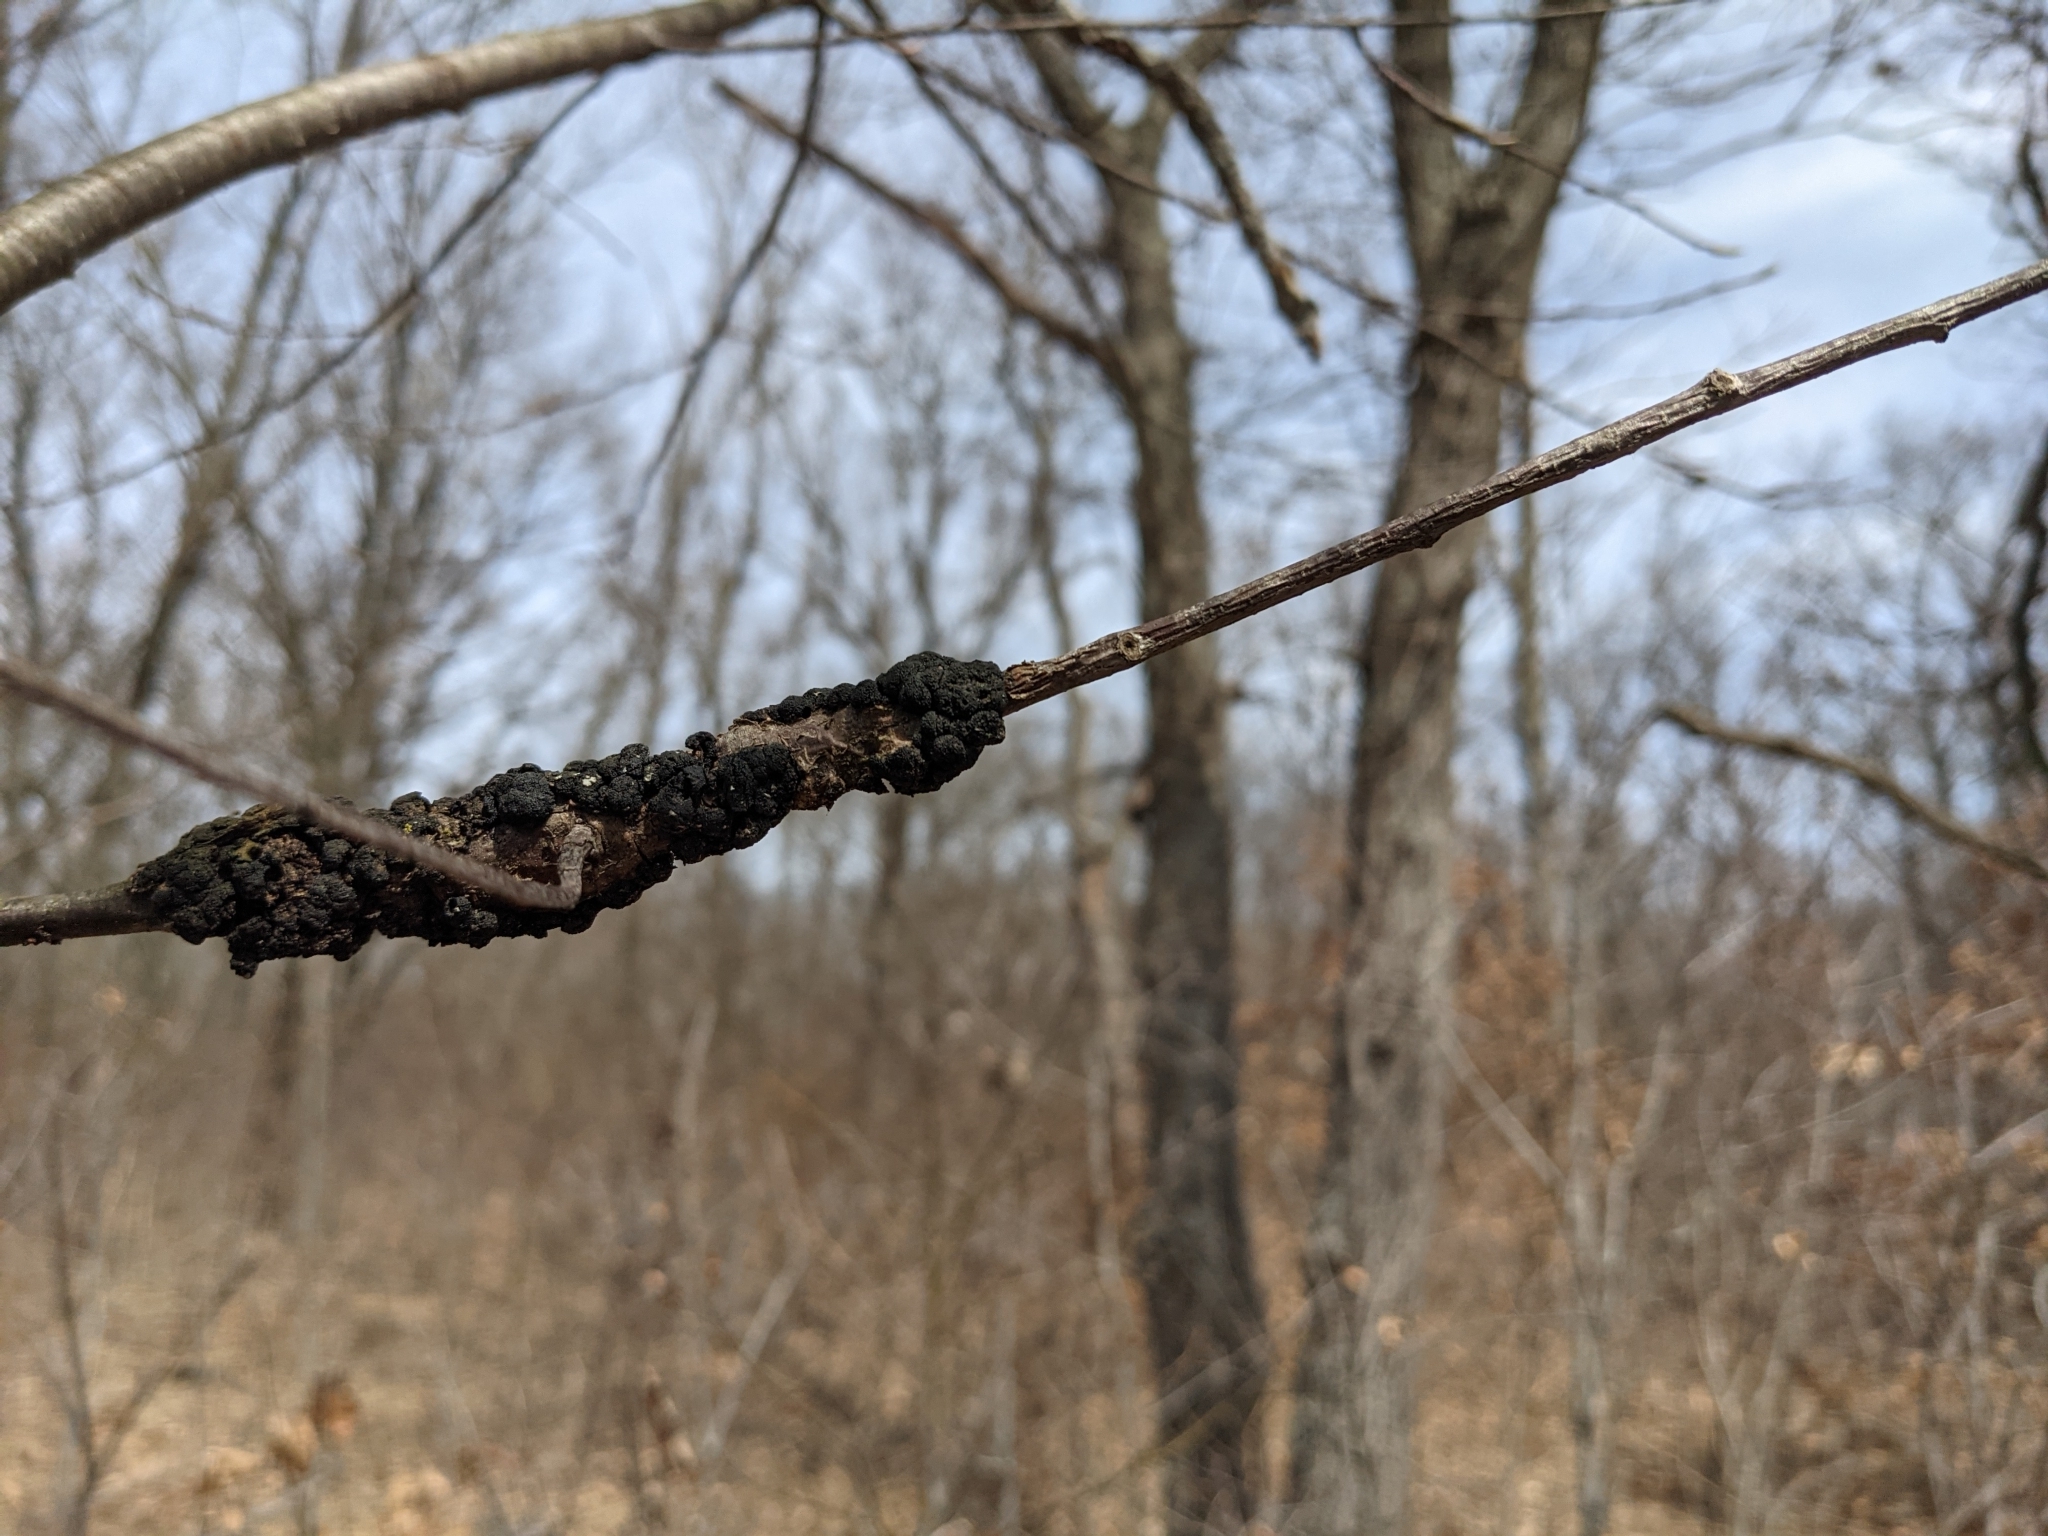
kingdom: Fungi
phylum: Ascomycota
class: Dothideomycetes
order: Venturiales
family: Venturiaceae
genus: Apiosporina
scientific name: Apiosporina morbosa
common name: Black knot
